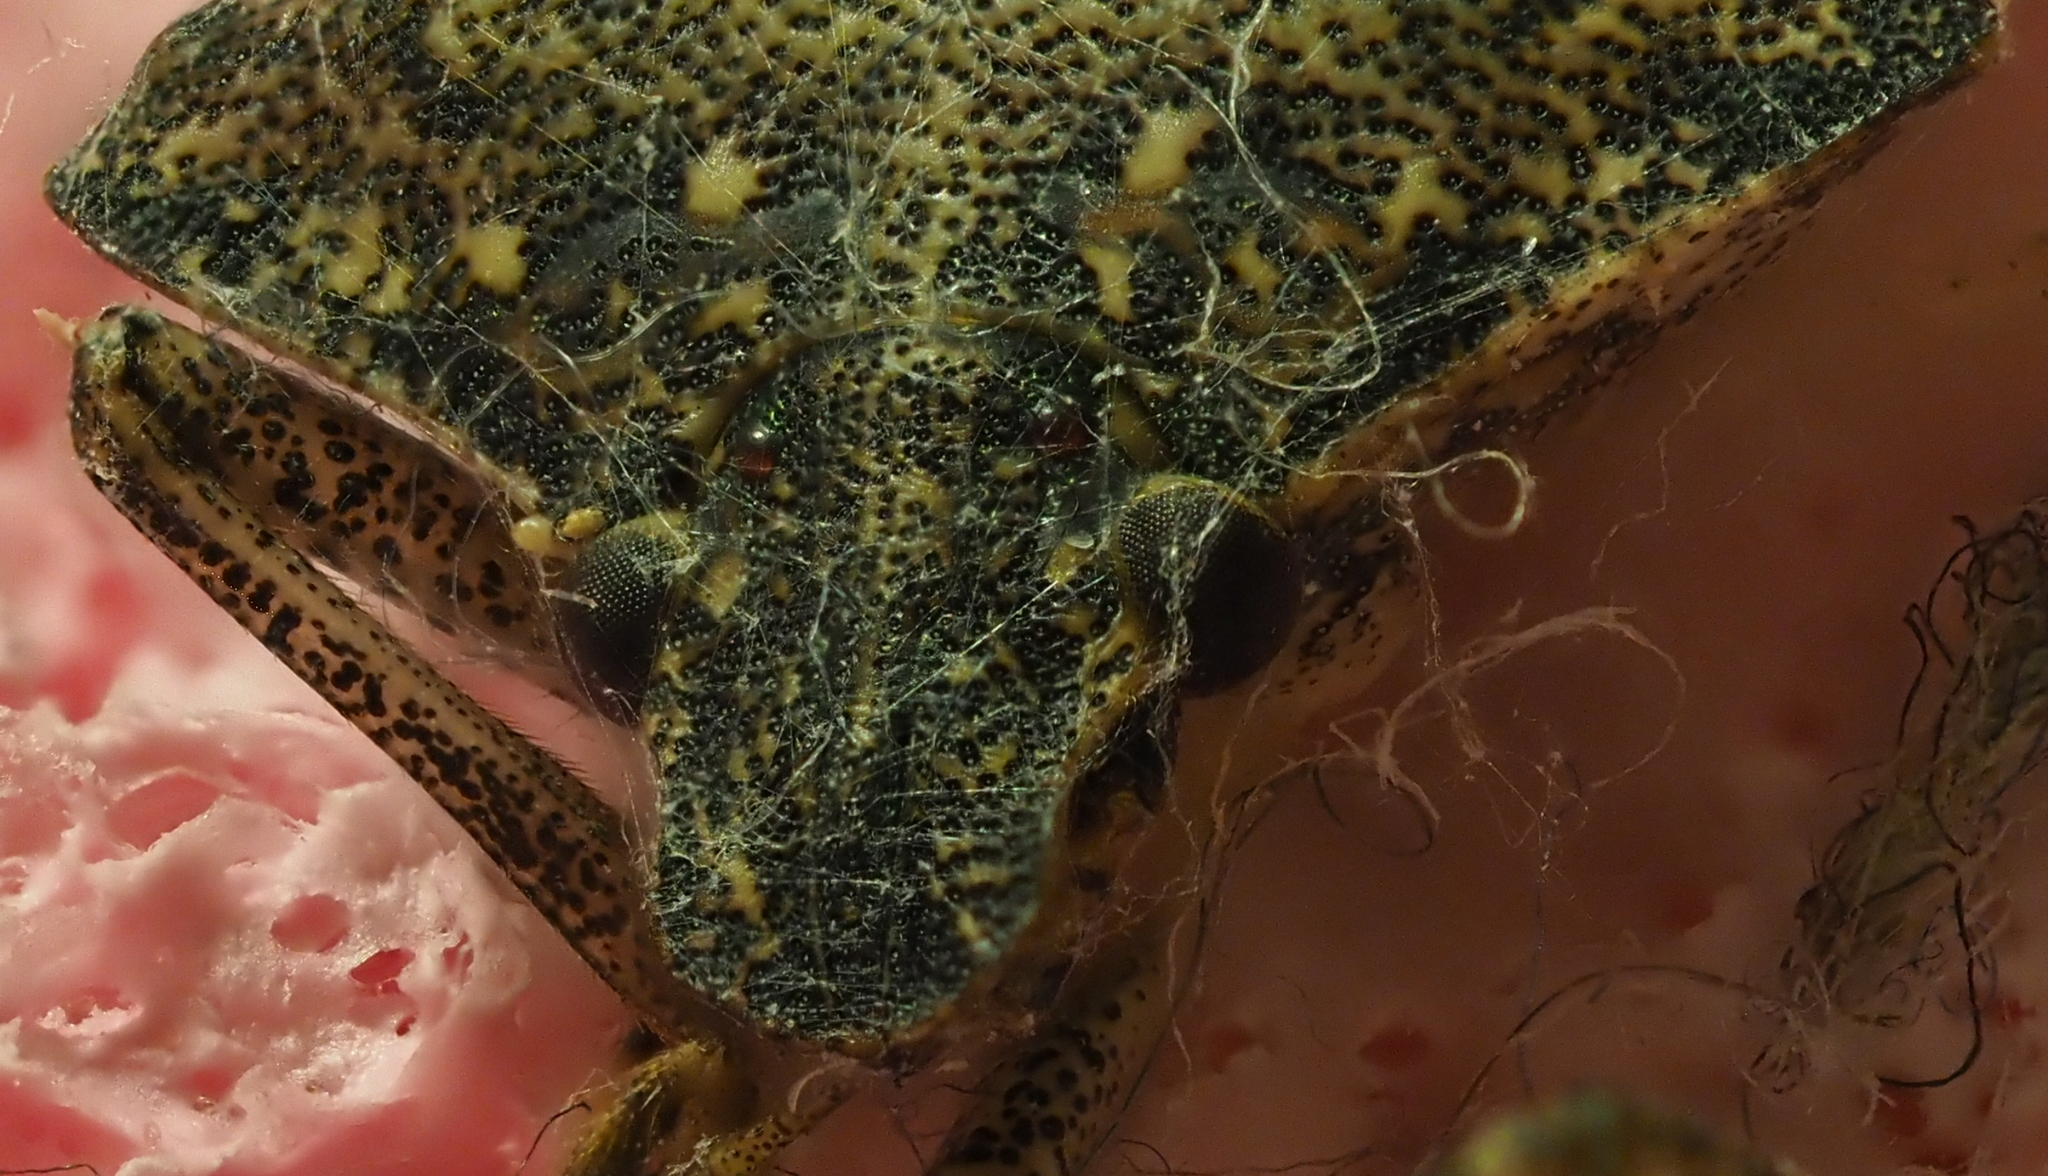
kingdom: Animalia
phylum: Arthropoda
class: Insecta
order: Hemiptera
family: Pentatomidae
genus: Halyomorpha
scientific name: Halyomorpha halys
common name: Brown marmorated stink bug
